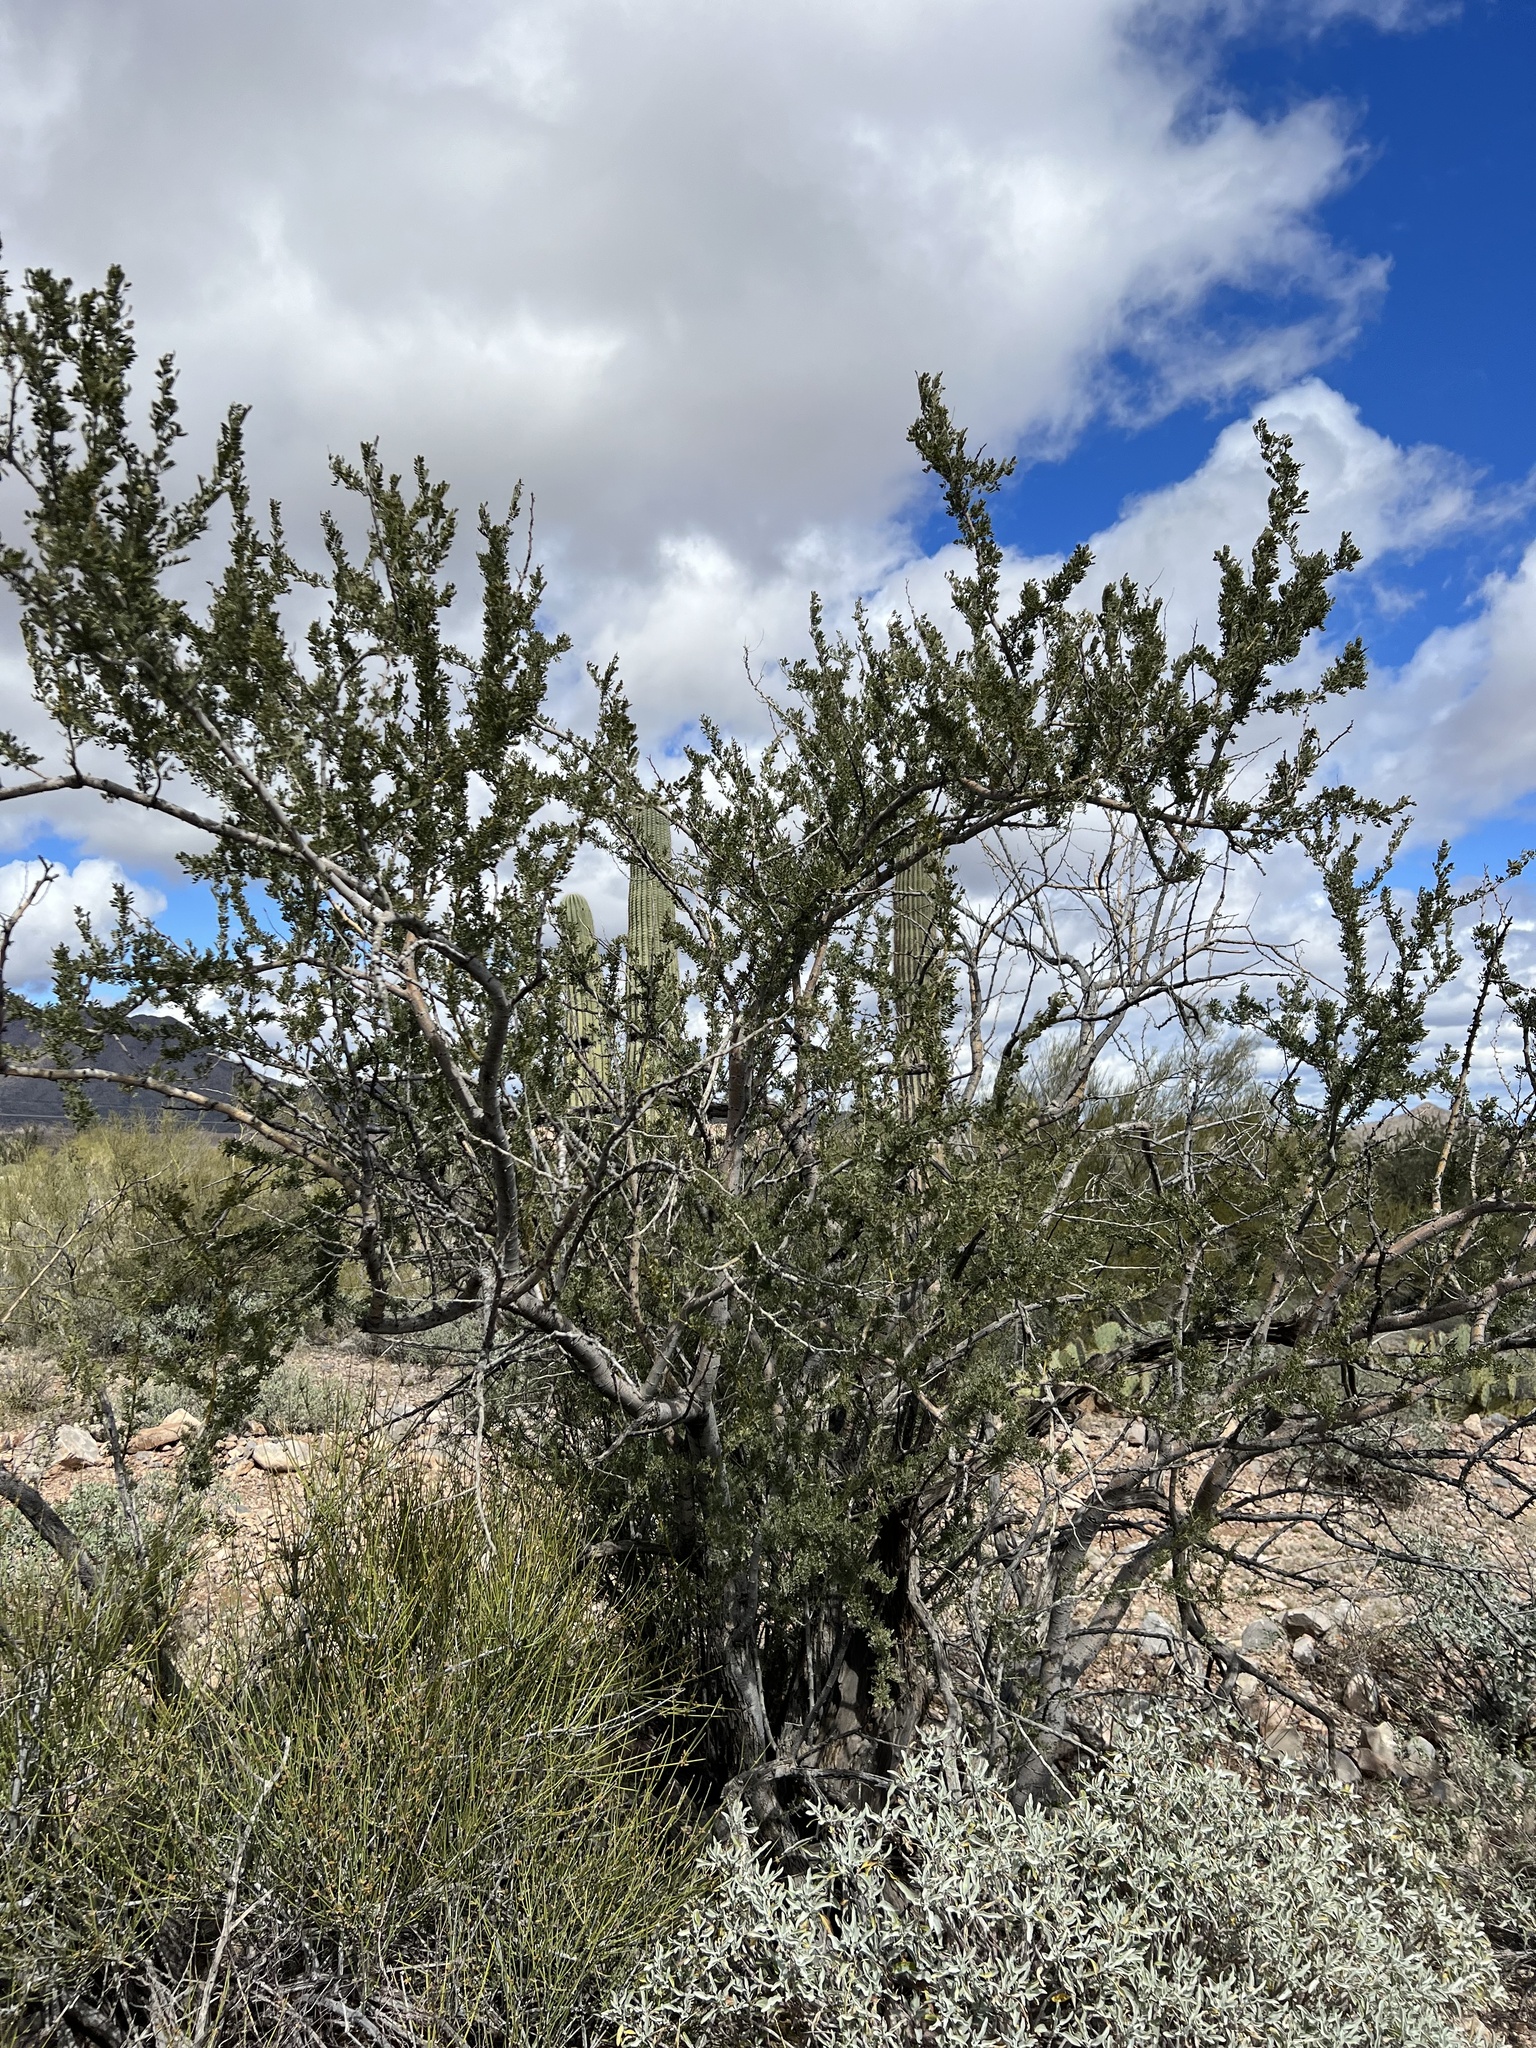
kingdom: Plantae
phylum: Tracheophyta
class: Magnoliopsida
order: Fabales
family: Fabaceae
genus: Olneya
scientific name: Olneya tesota
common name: Desert ironwood
